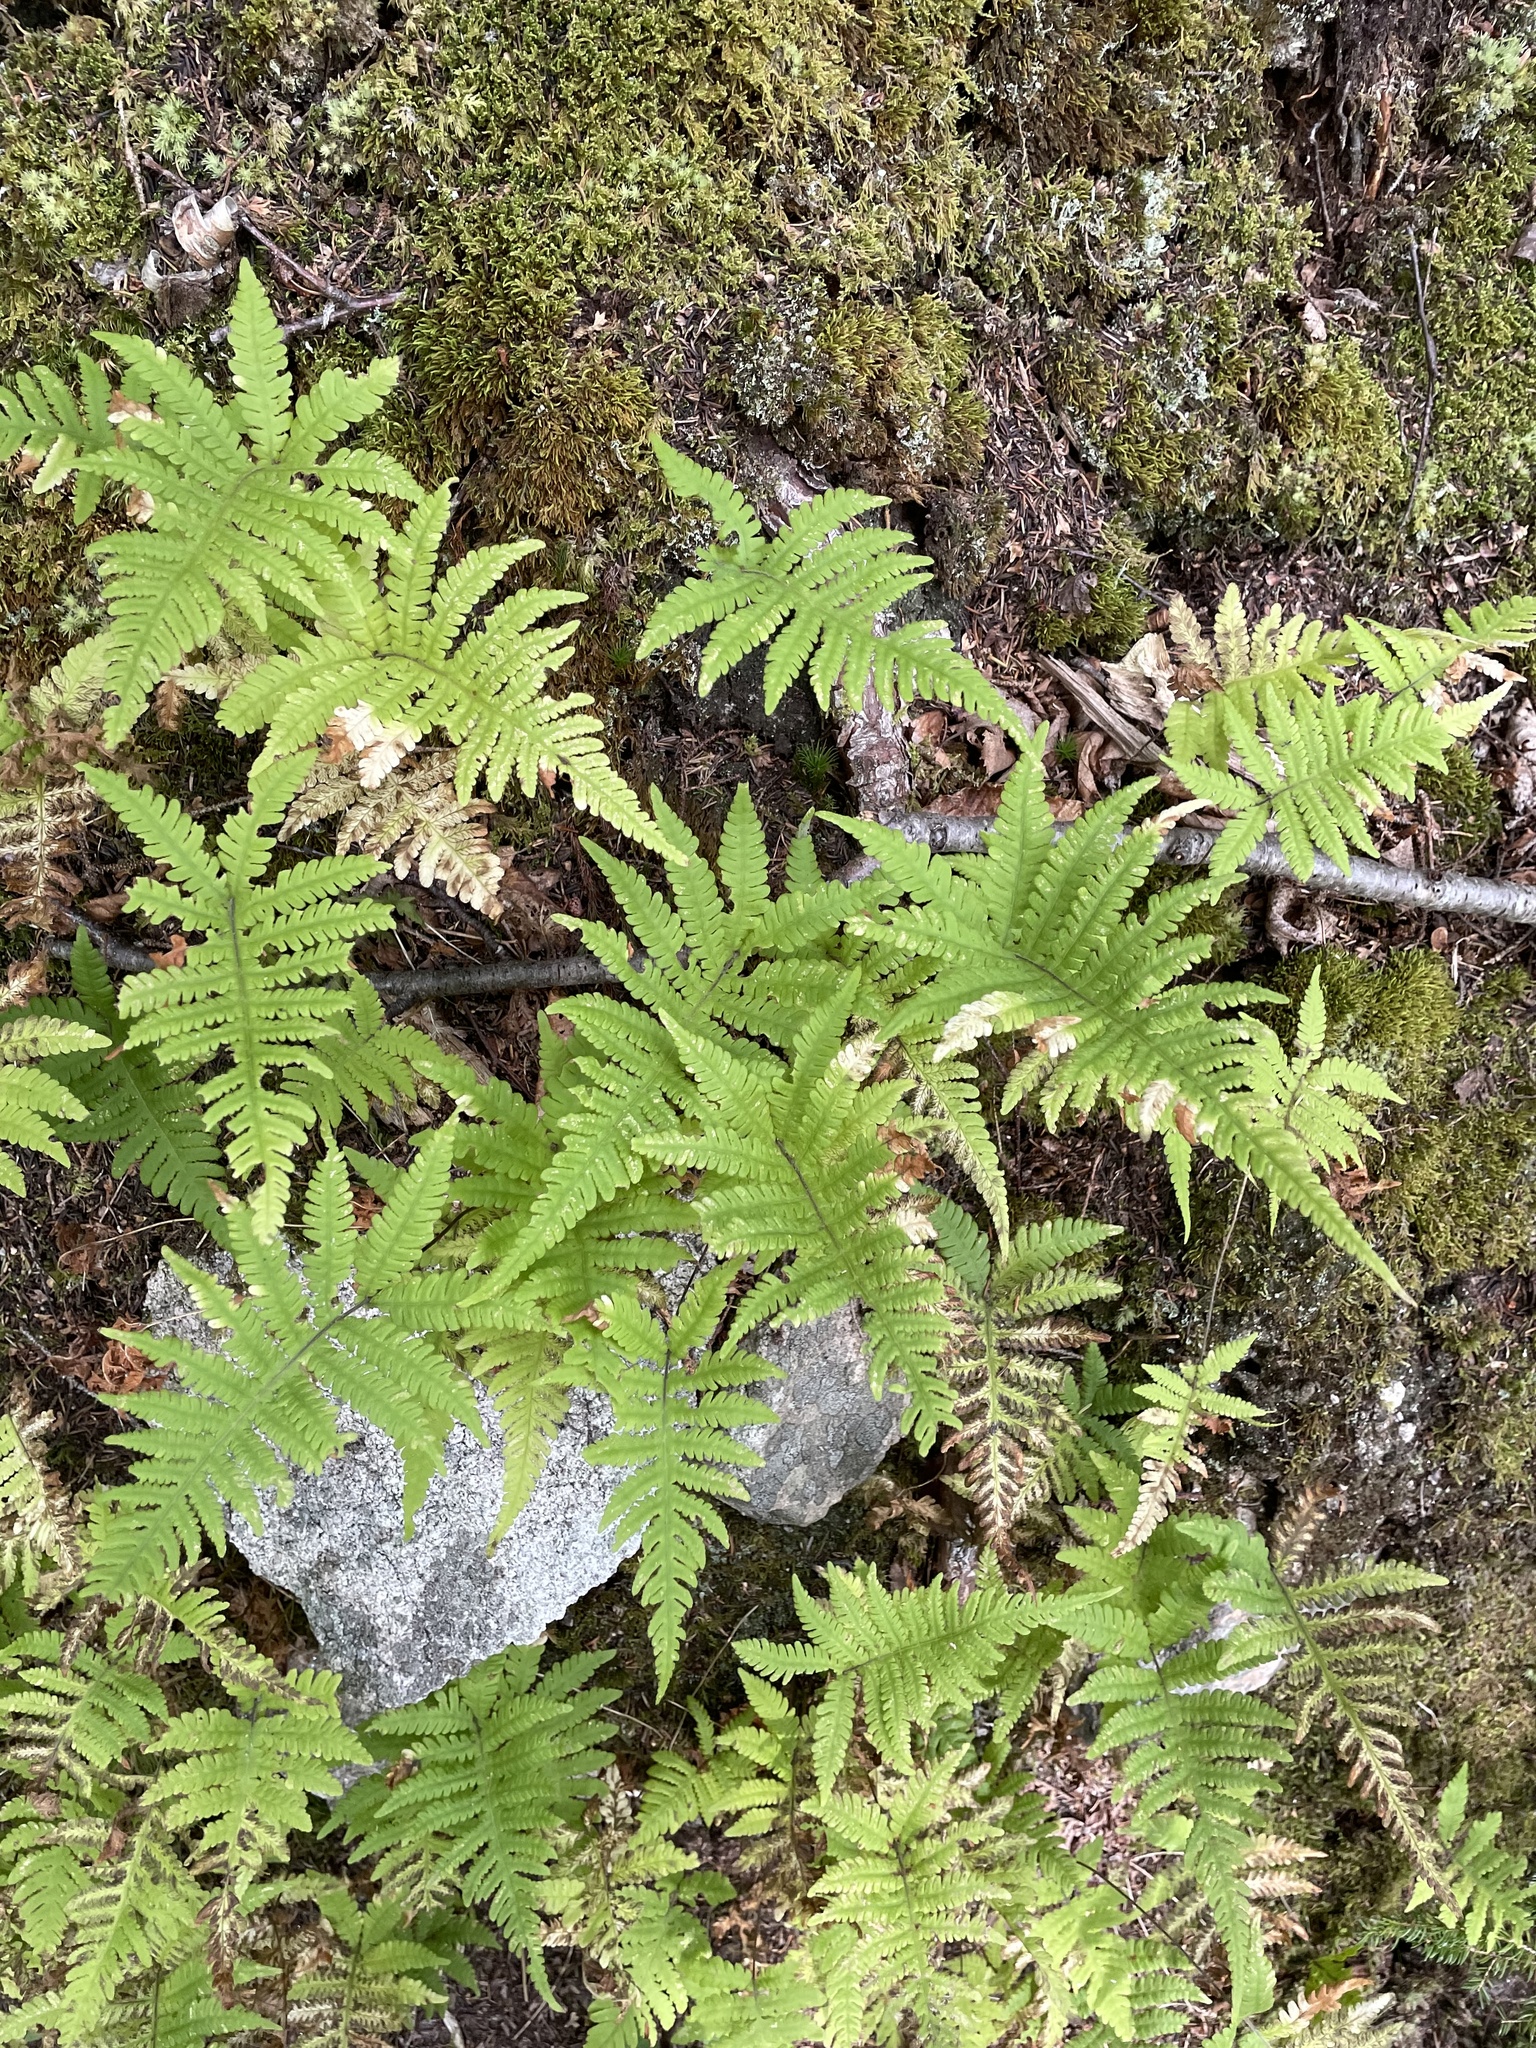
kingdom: Plantae
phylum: Tracheophyta
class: Polypodiopsida
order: Polypodiales
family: Thelypteridaceae
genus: Phegopteris
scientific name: Phegopteris connectilis
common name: Beech fern
